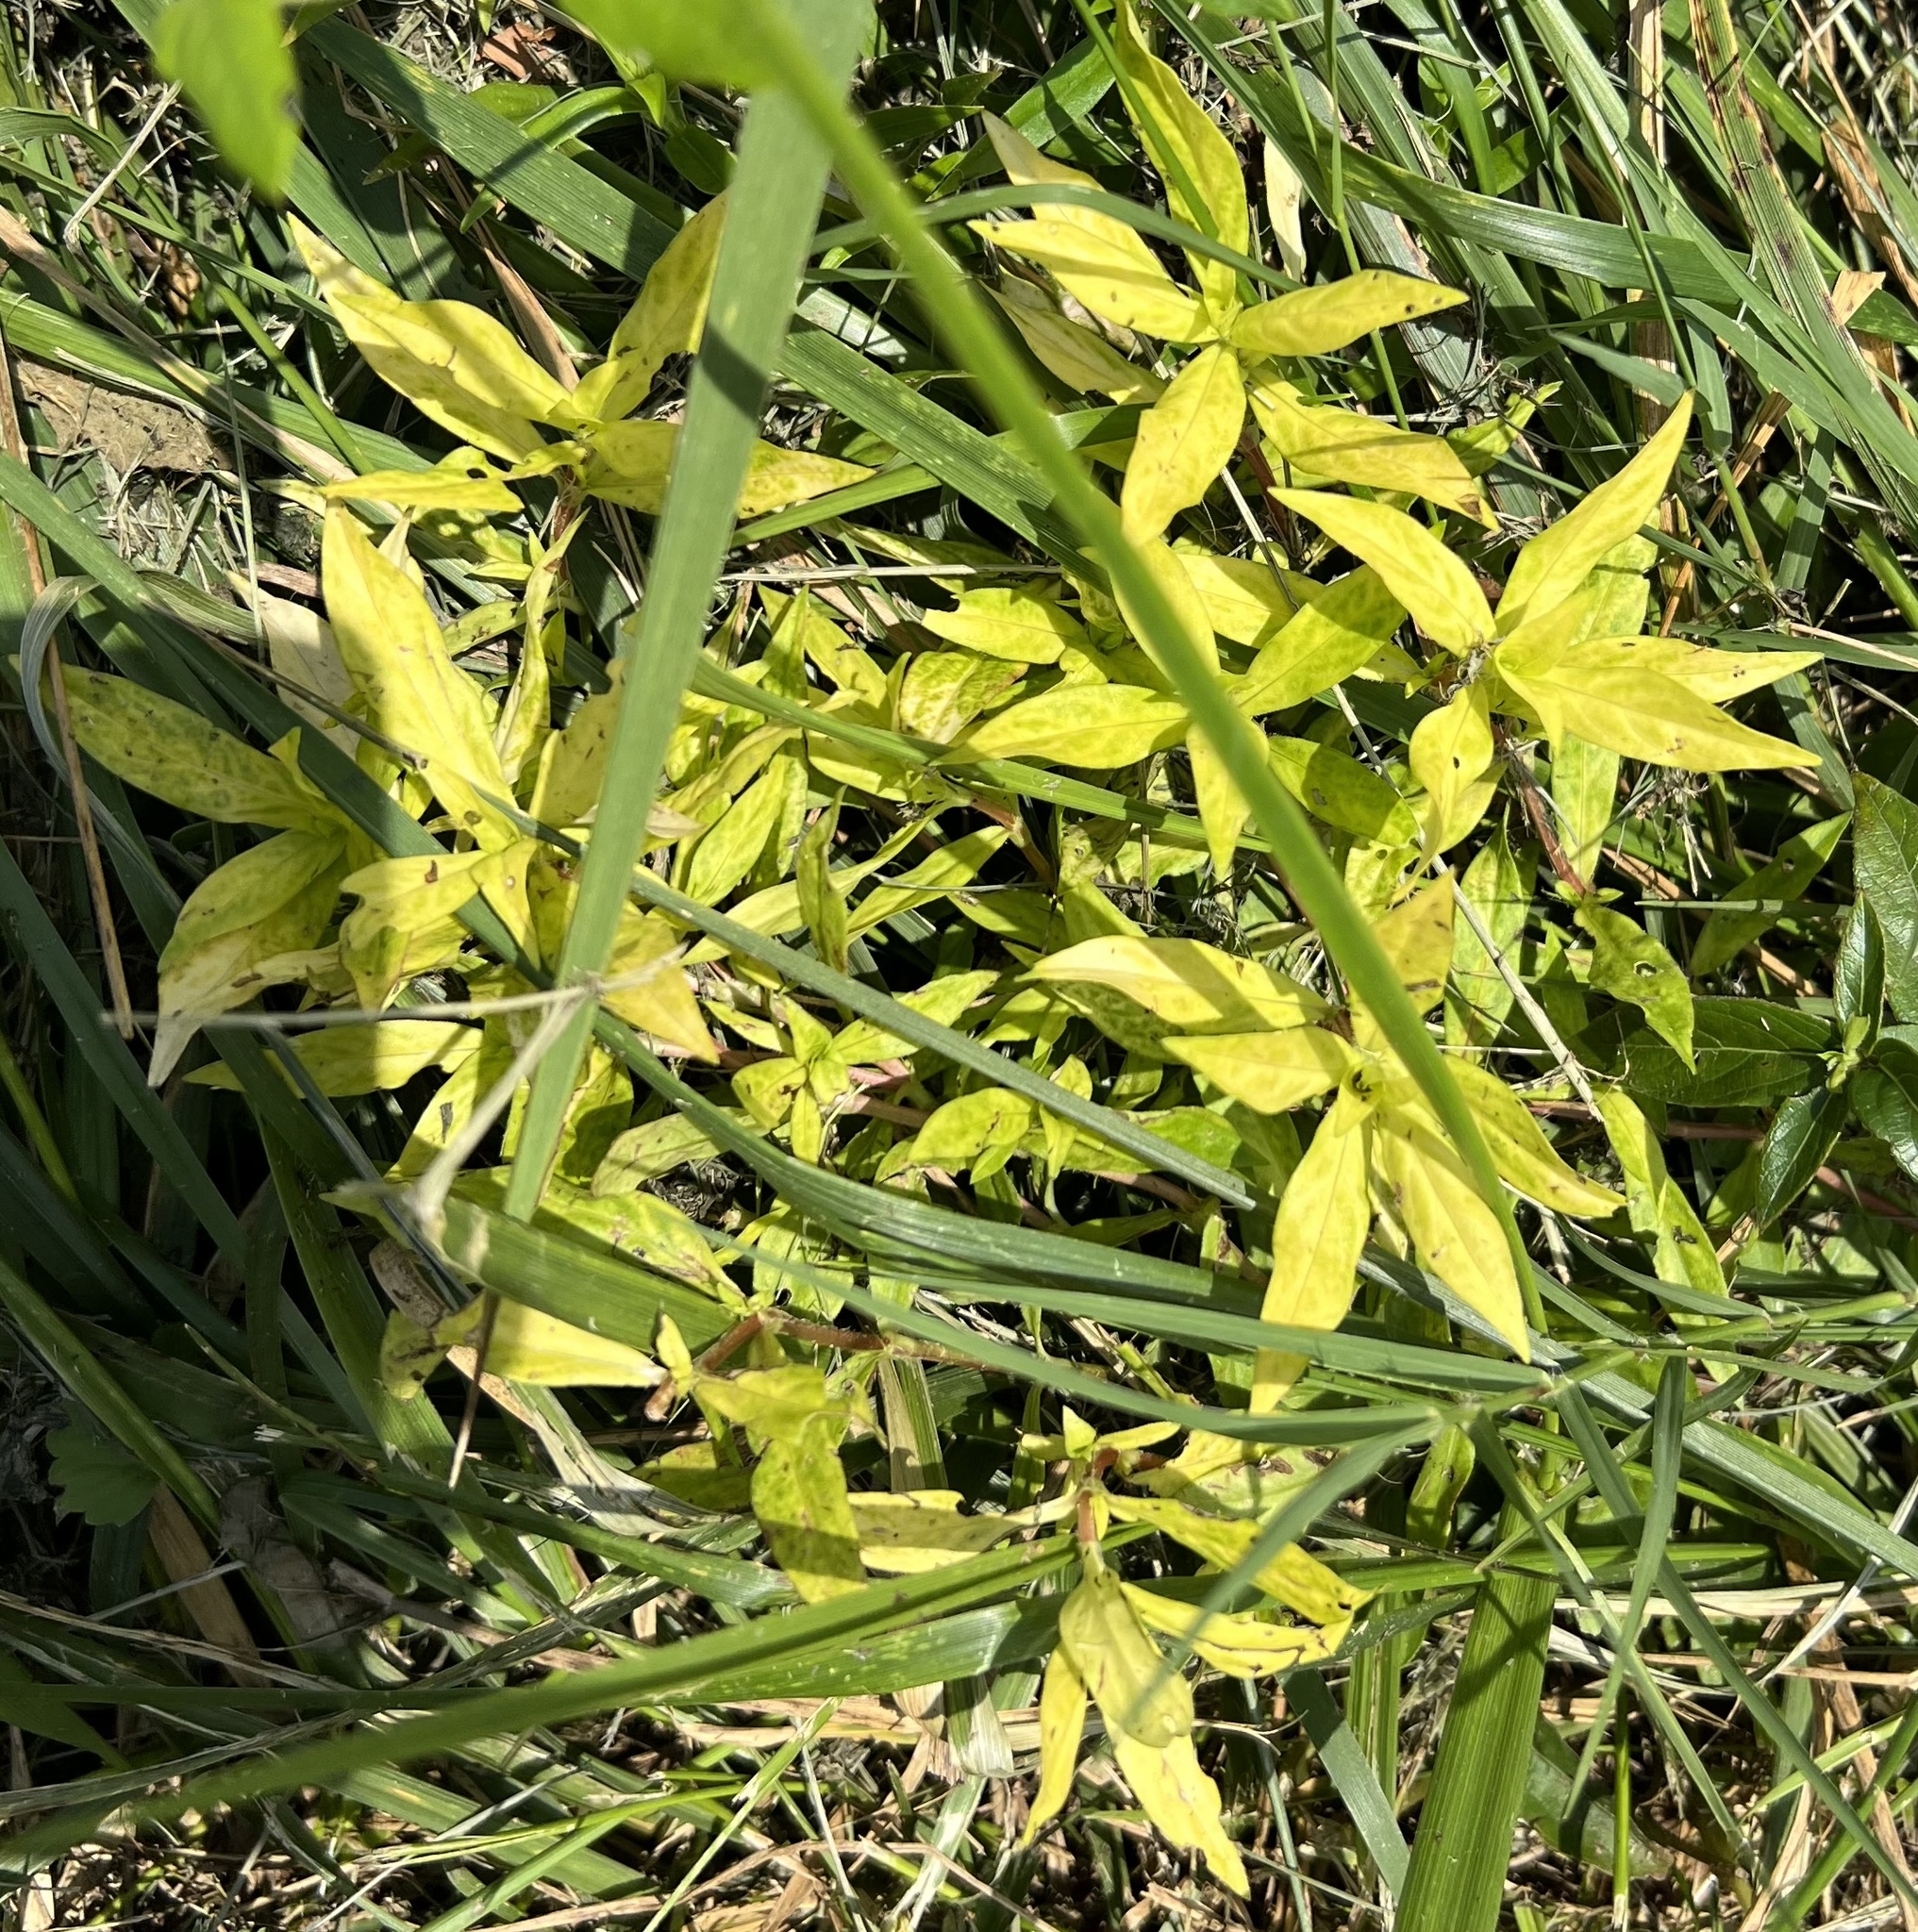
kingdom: Viruses
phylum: Kitrinoviricota
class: Alsuviricetes
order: Martellivirales
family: Closteroviridae
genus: Crinivirus
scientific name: Crinivirus Diodia vein chlorosis virus
